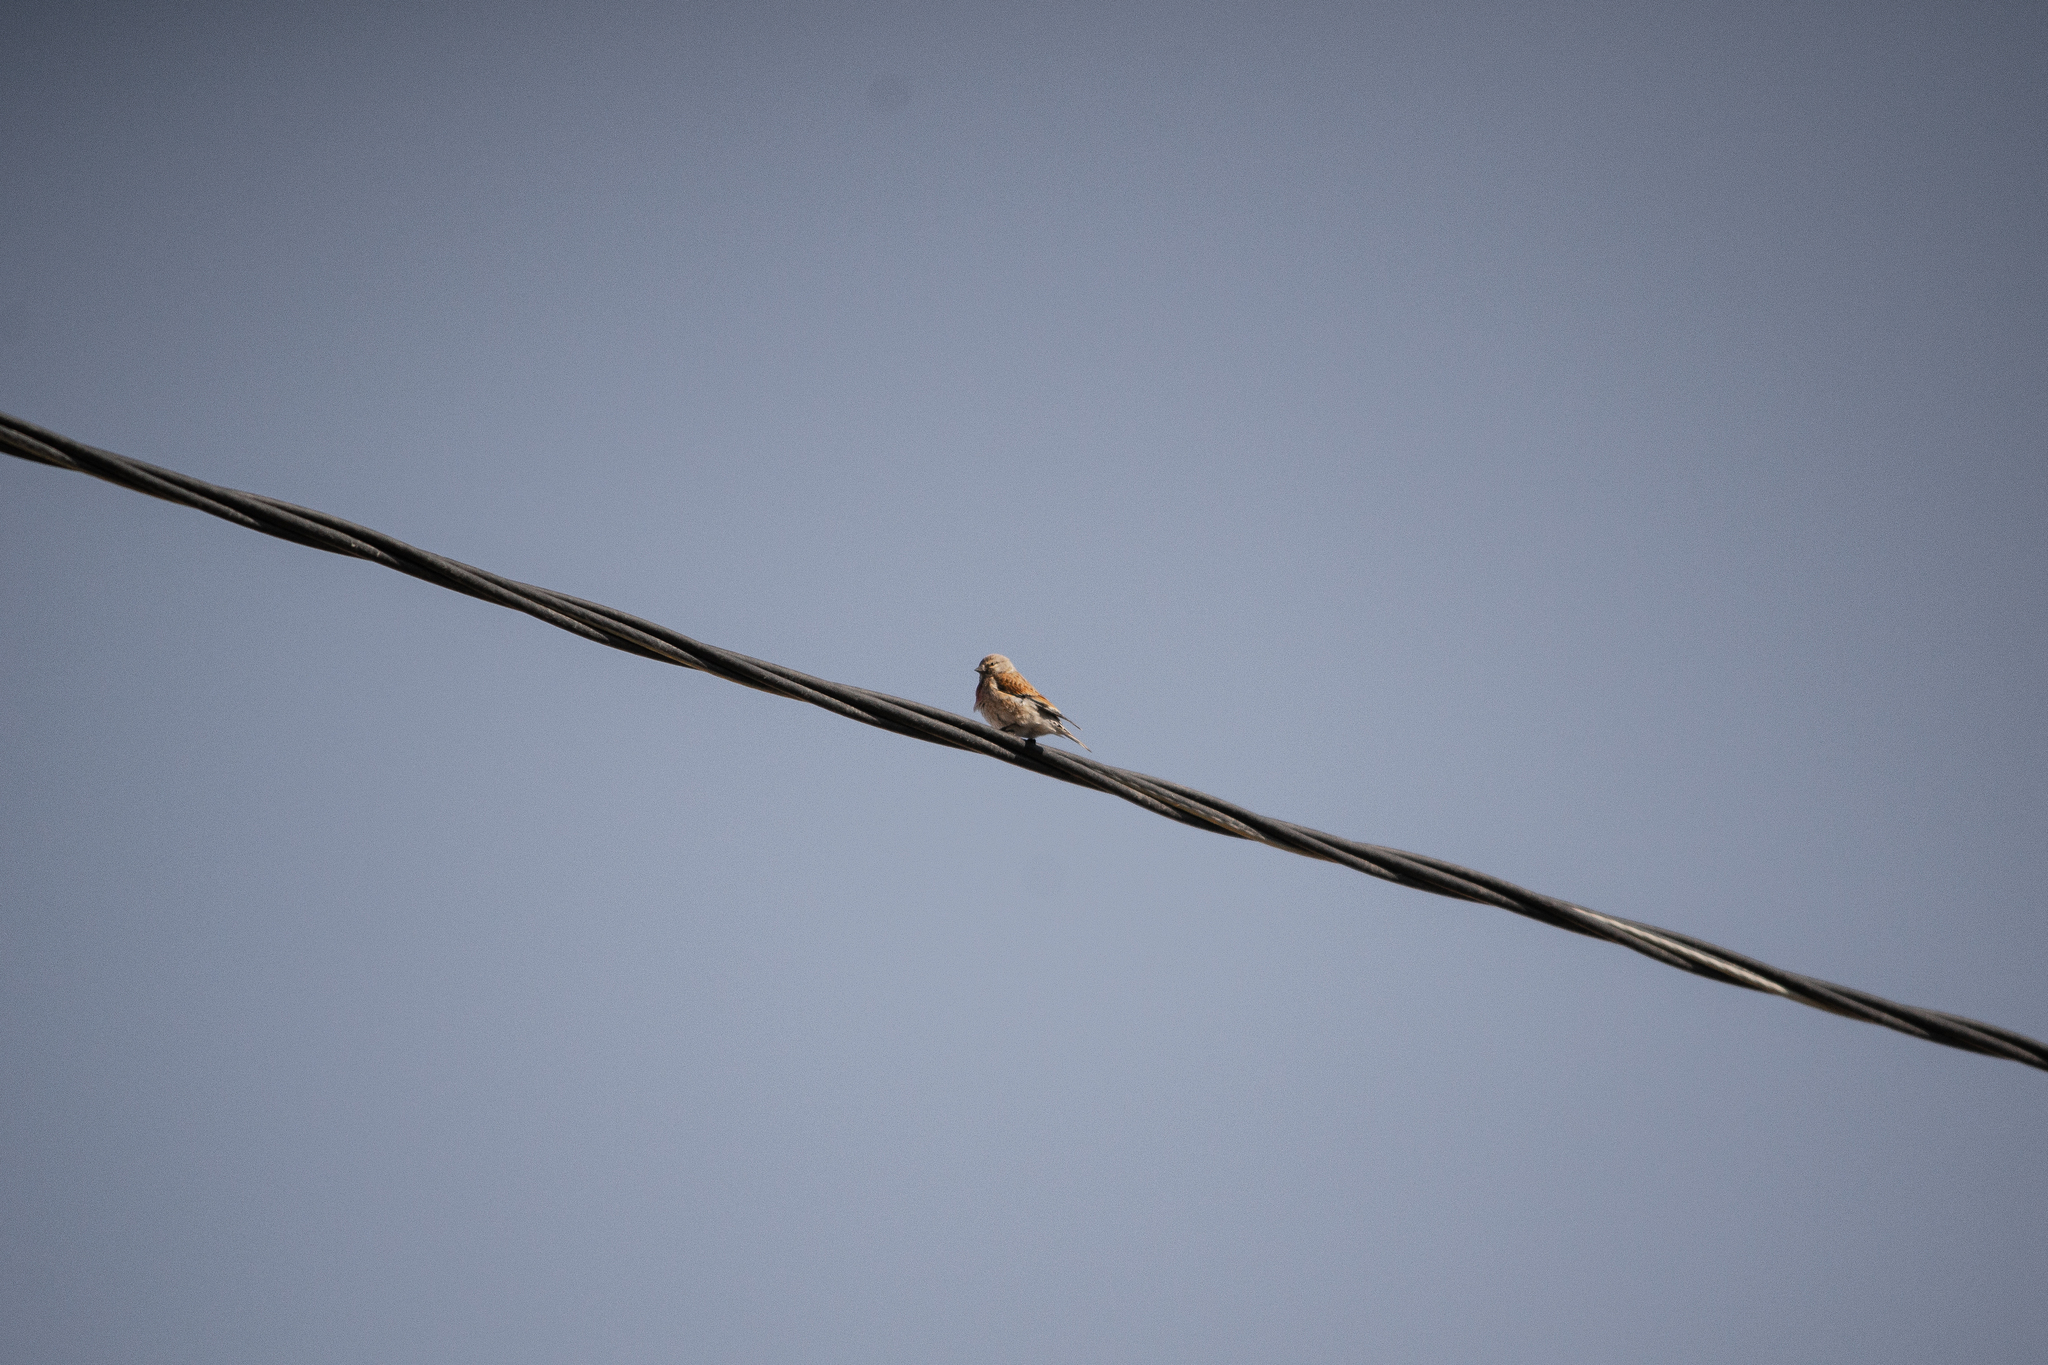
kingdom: Animalia
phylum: Chordata
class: Aves
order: Passeriformes
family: Fringillidae
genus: Linaria
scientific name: Linaria cannabina
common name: Common linnet
